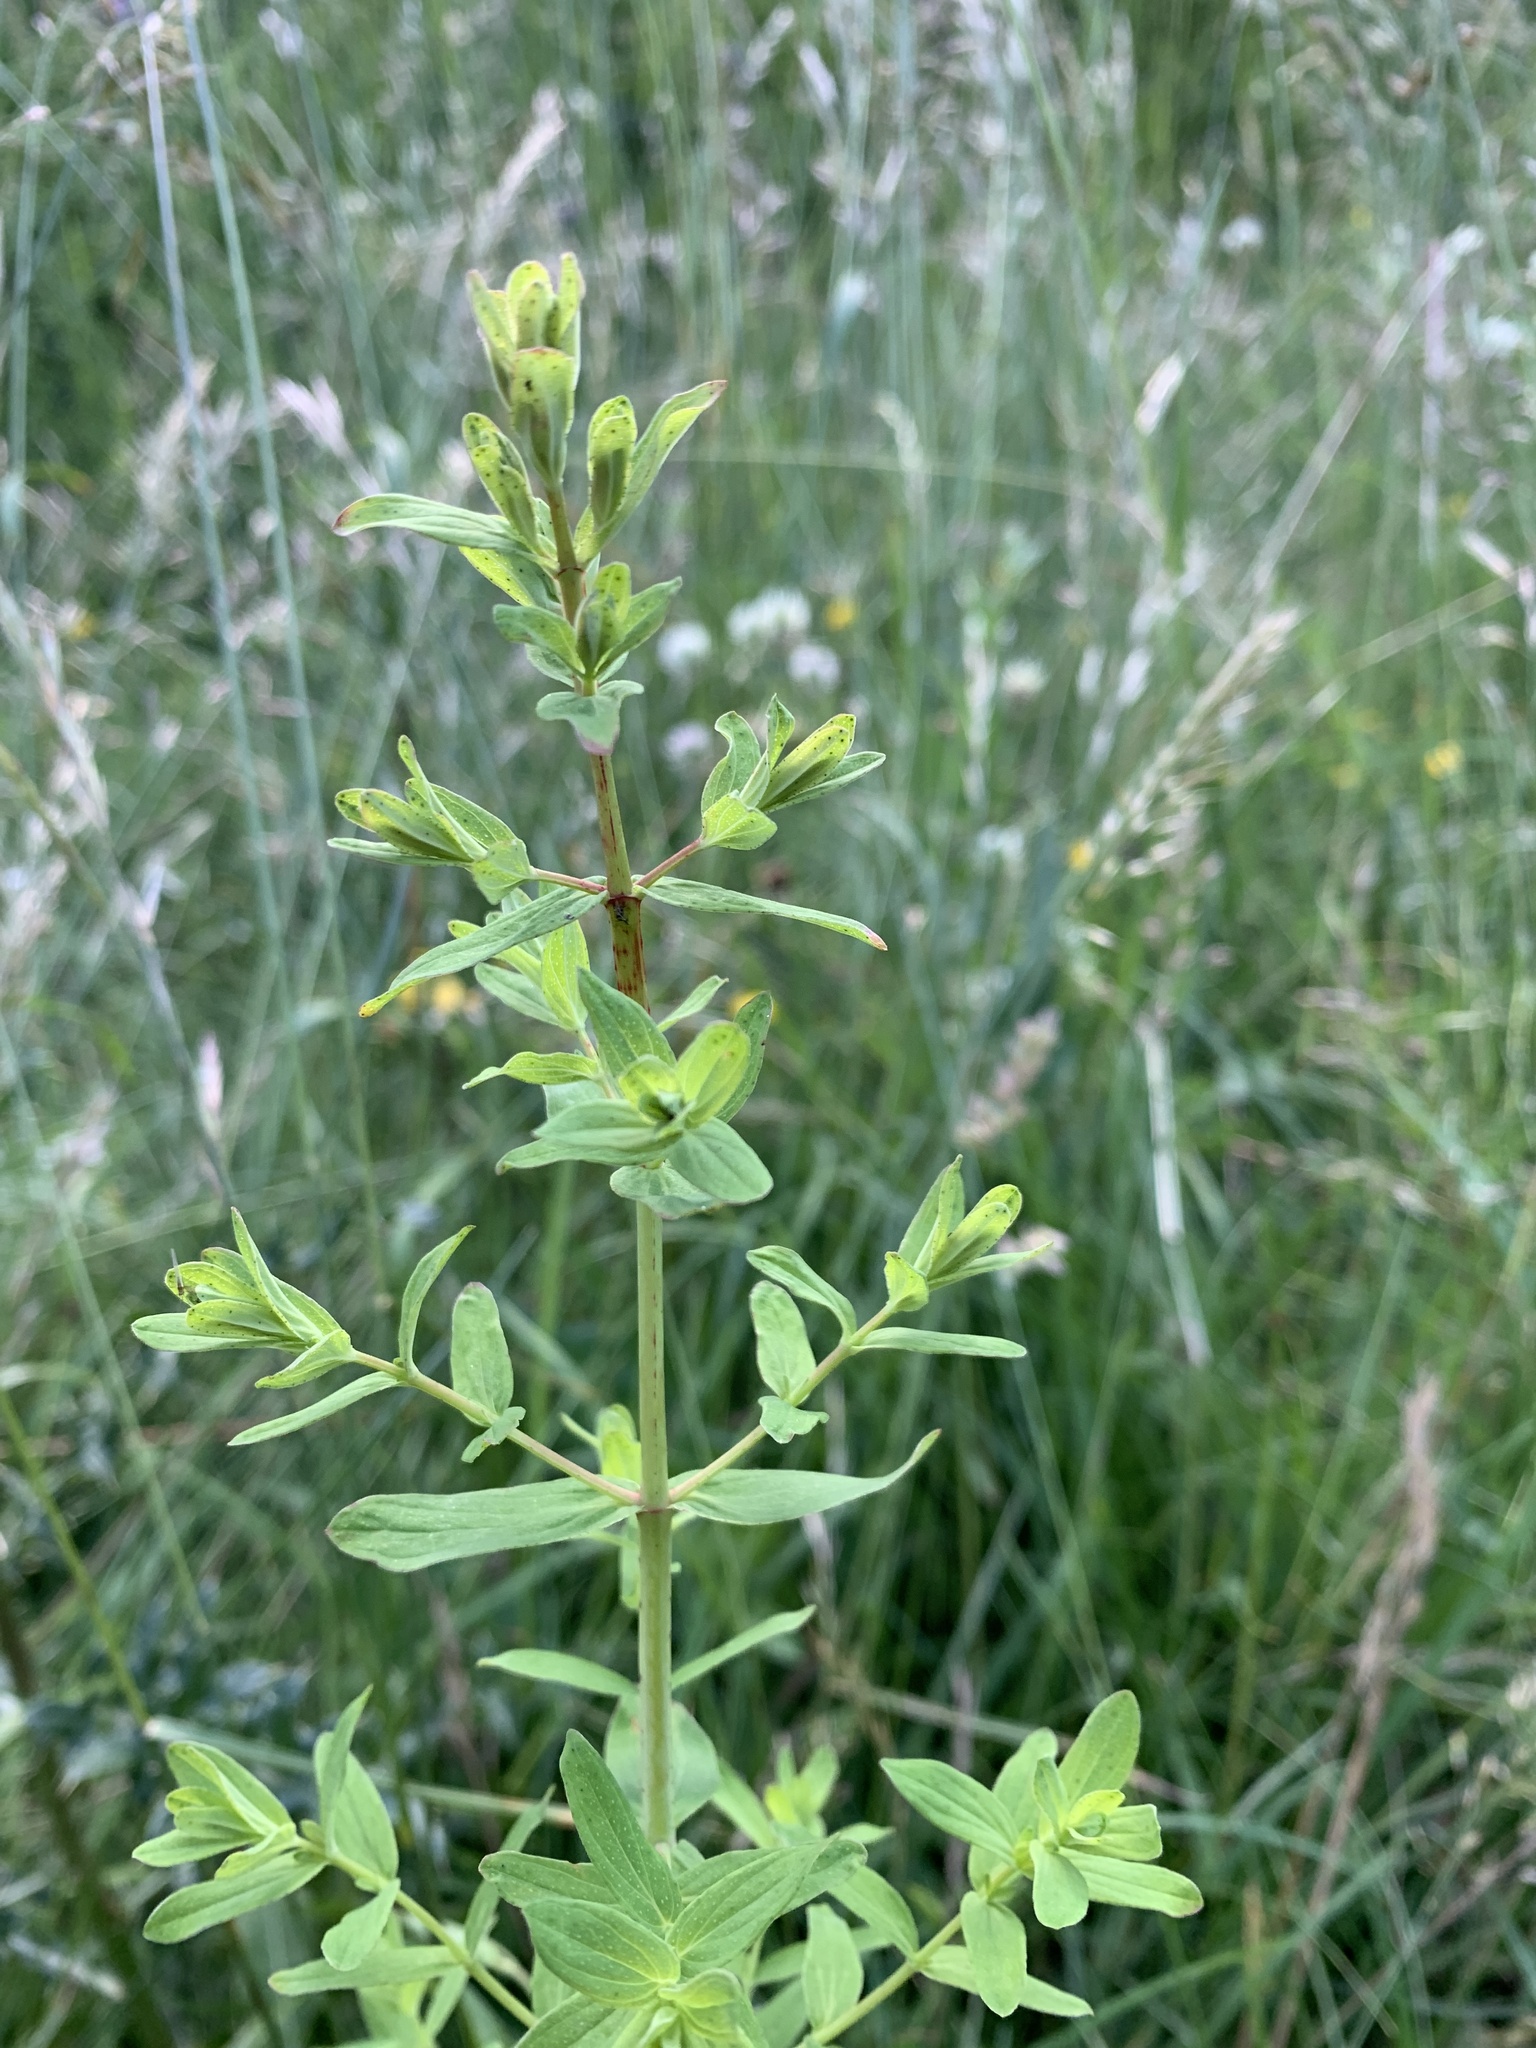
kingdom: Plantae
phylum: Tracheophyta
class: Magnoliopsida
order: Malpighiales
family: Hypericaceae
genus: Hypericum
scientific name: Hypericum perforatum
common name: Common st. johnswort
